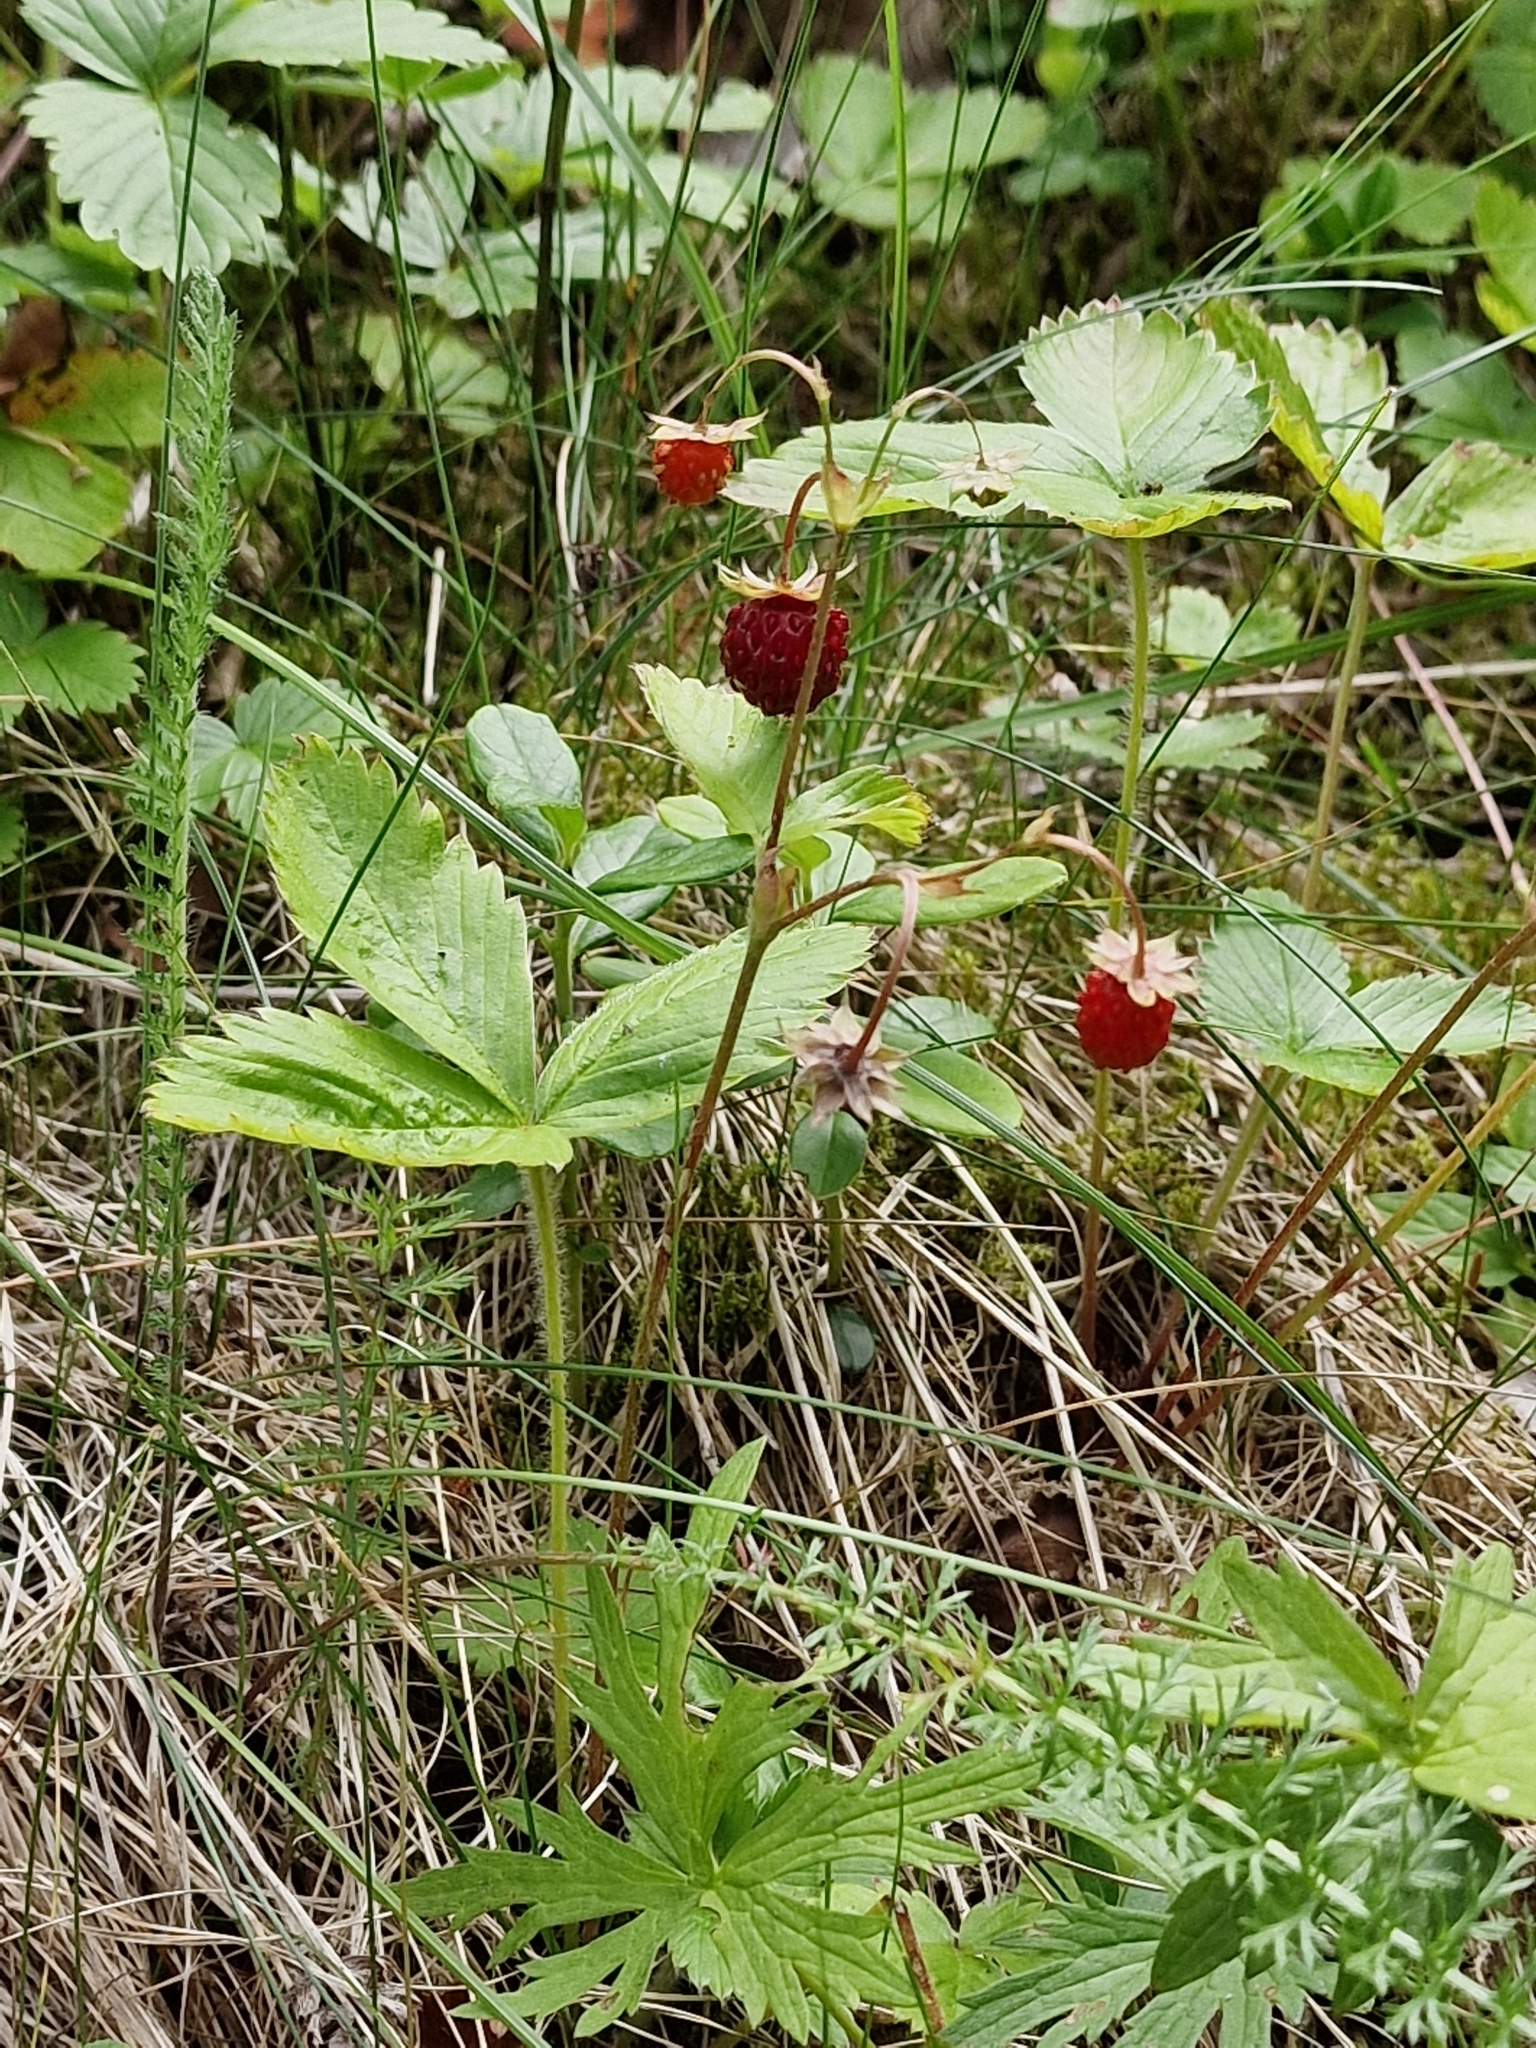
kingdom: Plantae
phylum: Tracheophyta
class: Magnoliopsida
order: Rosales
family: Rosaceae
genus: Fragaria
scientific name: Fragaria vesca
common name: Wild strawberry
